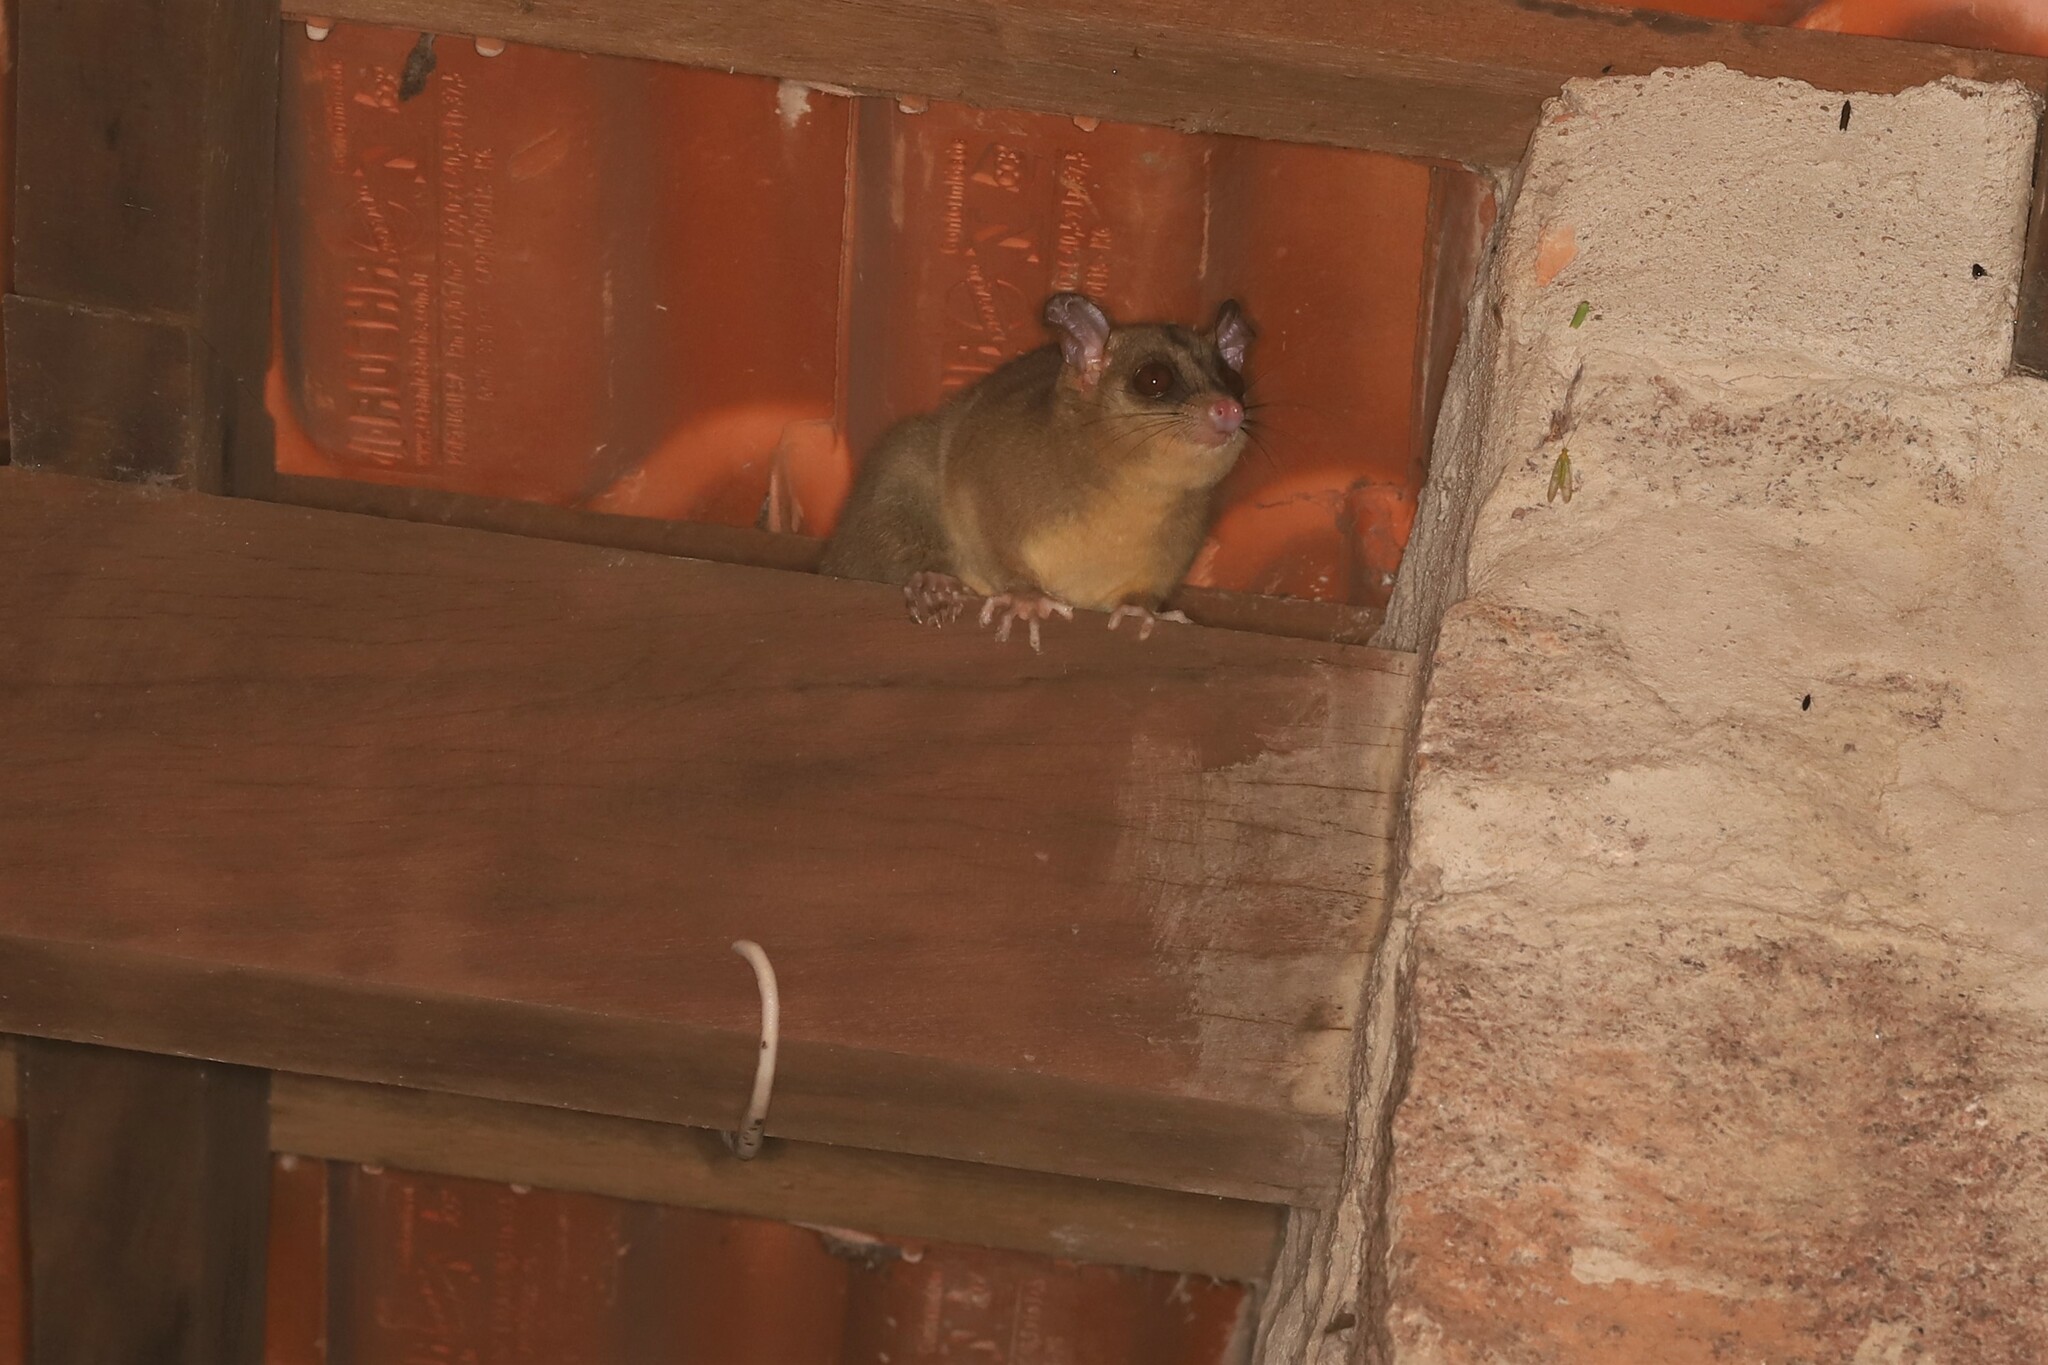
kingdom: Animalia
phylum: Chordata
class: Mammalia
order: Didelphimorphia
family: Didelphidae
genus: Caluromys
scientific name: Caluromys philander
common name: Bare-tailed woolly opossum
